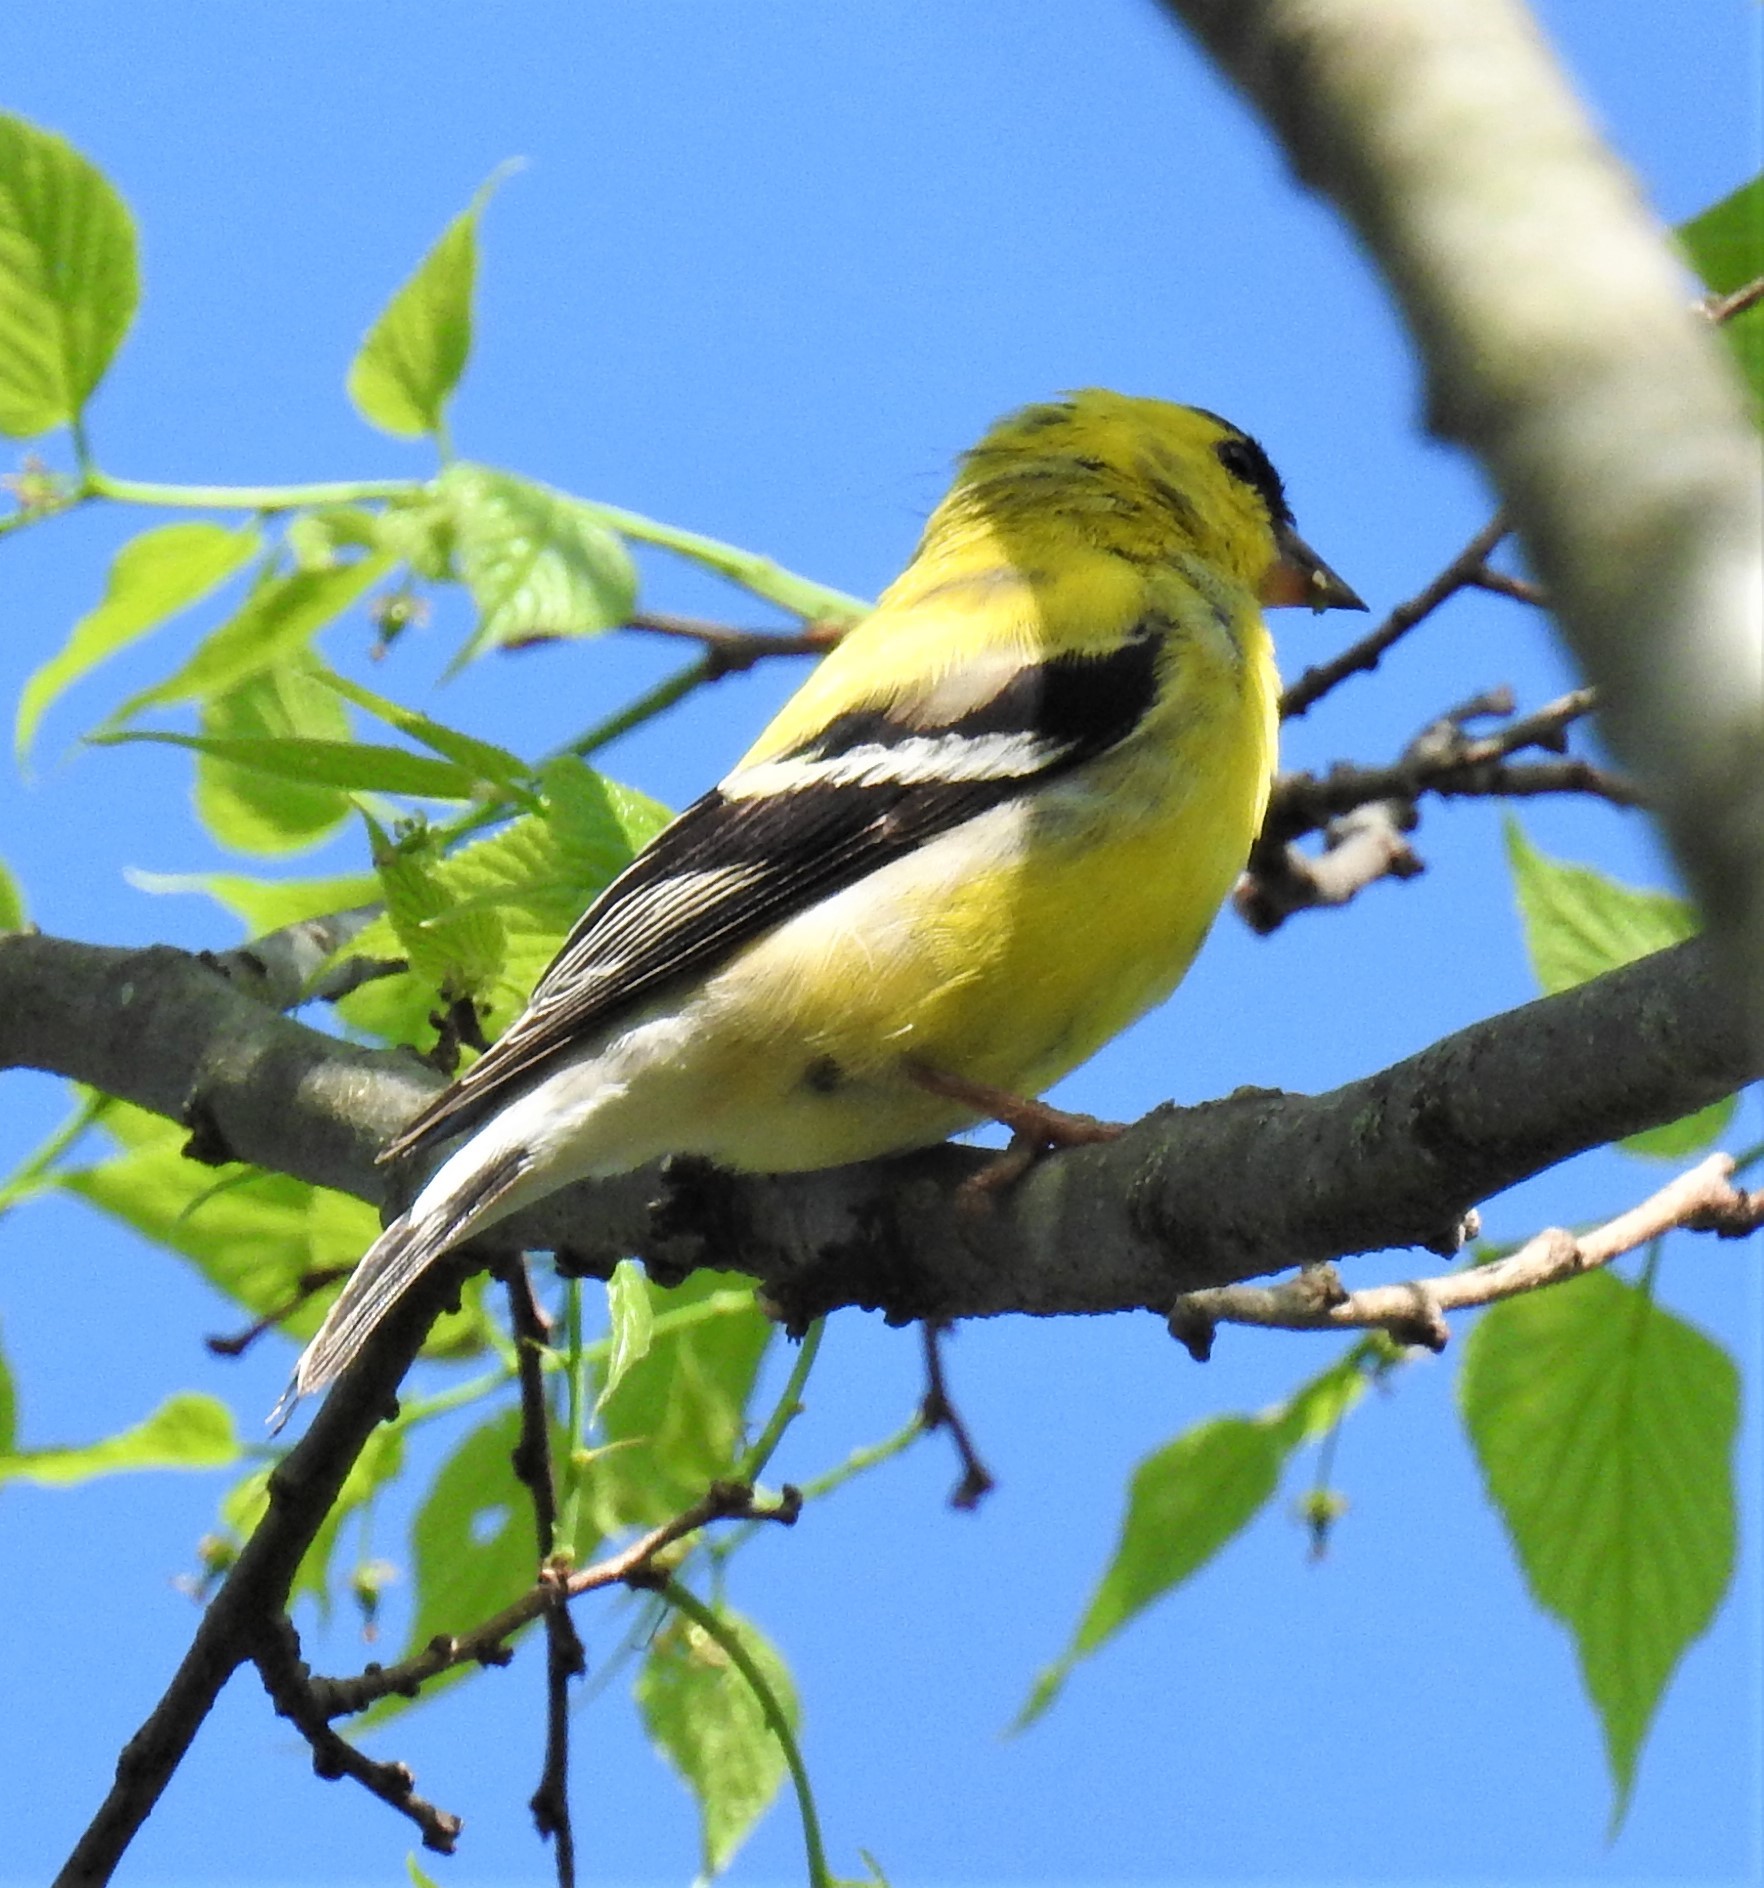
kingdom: Animalia
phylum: Chordata
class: Aves
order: Passeriformes
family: Fringillidae
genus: Spinus
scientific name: Spinus tristis
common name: American goldfinch
